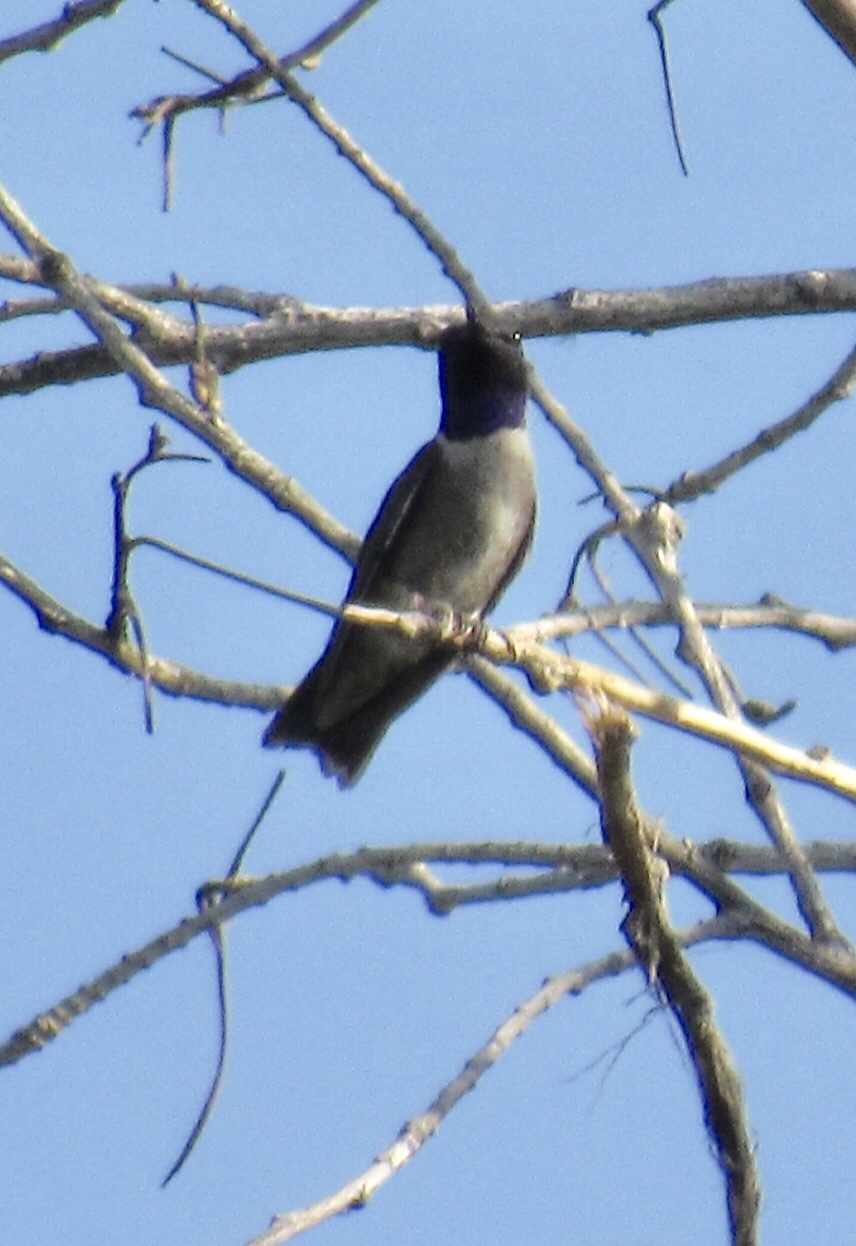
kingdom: Animalia
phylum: Chordata
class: Aves
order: Apodiformes
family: Trochilidae
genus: Archilochus
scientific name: Archilochus alexandri
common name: Black-chinned hummingbird
